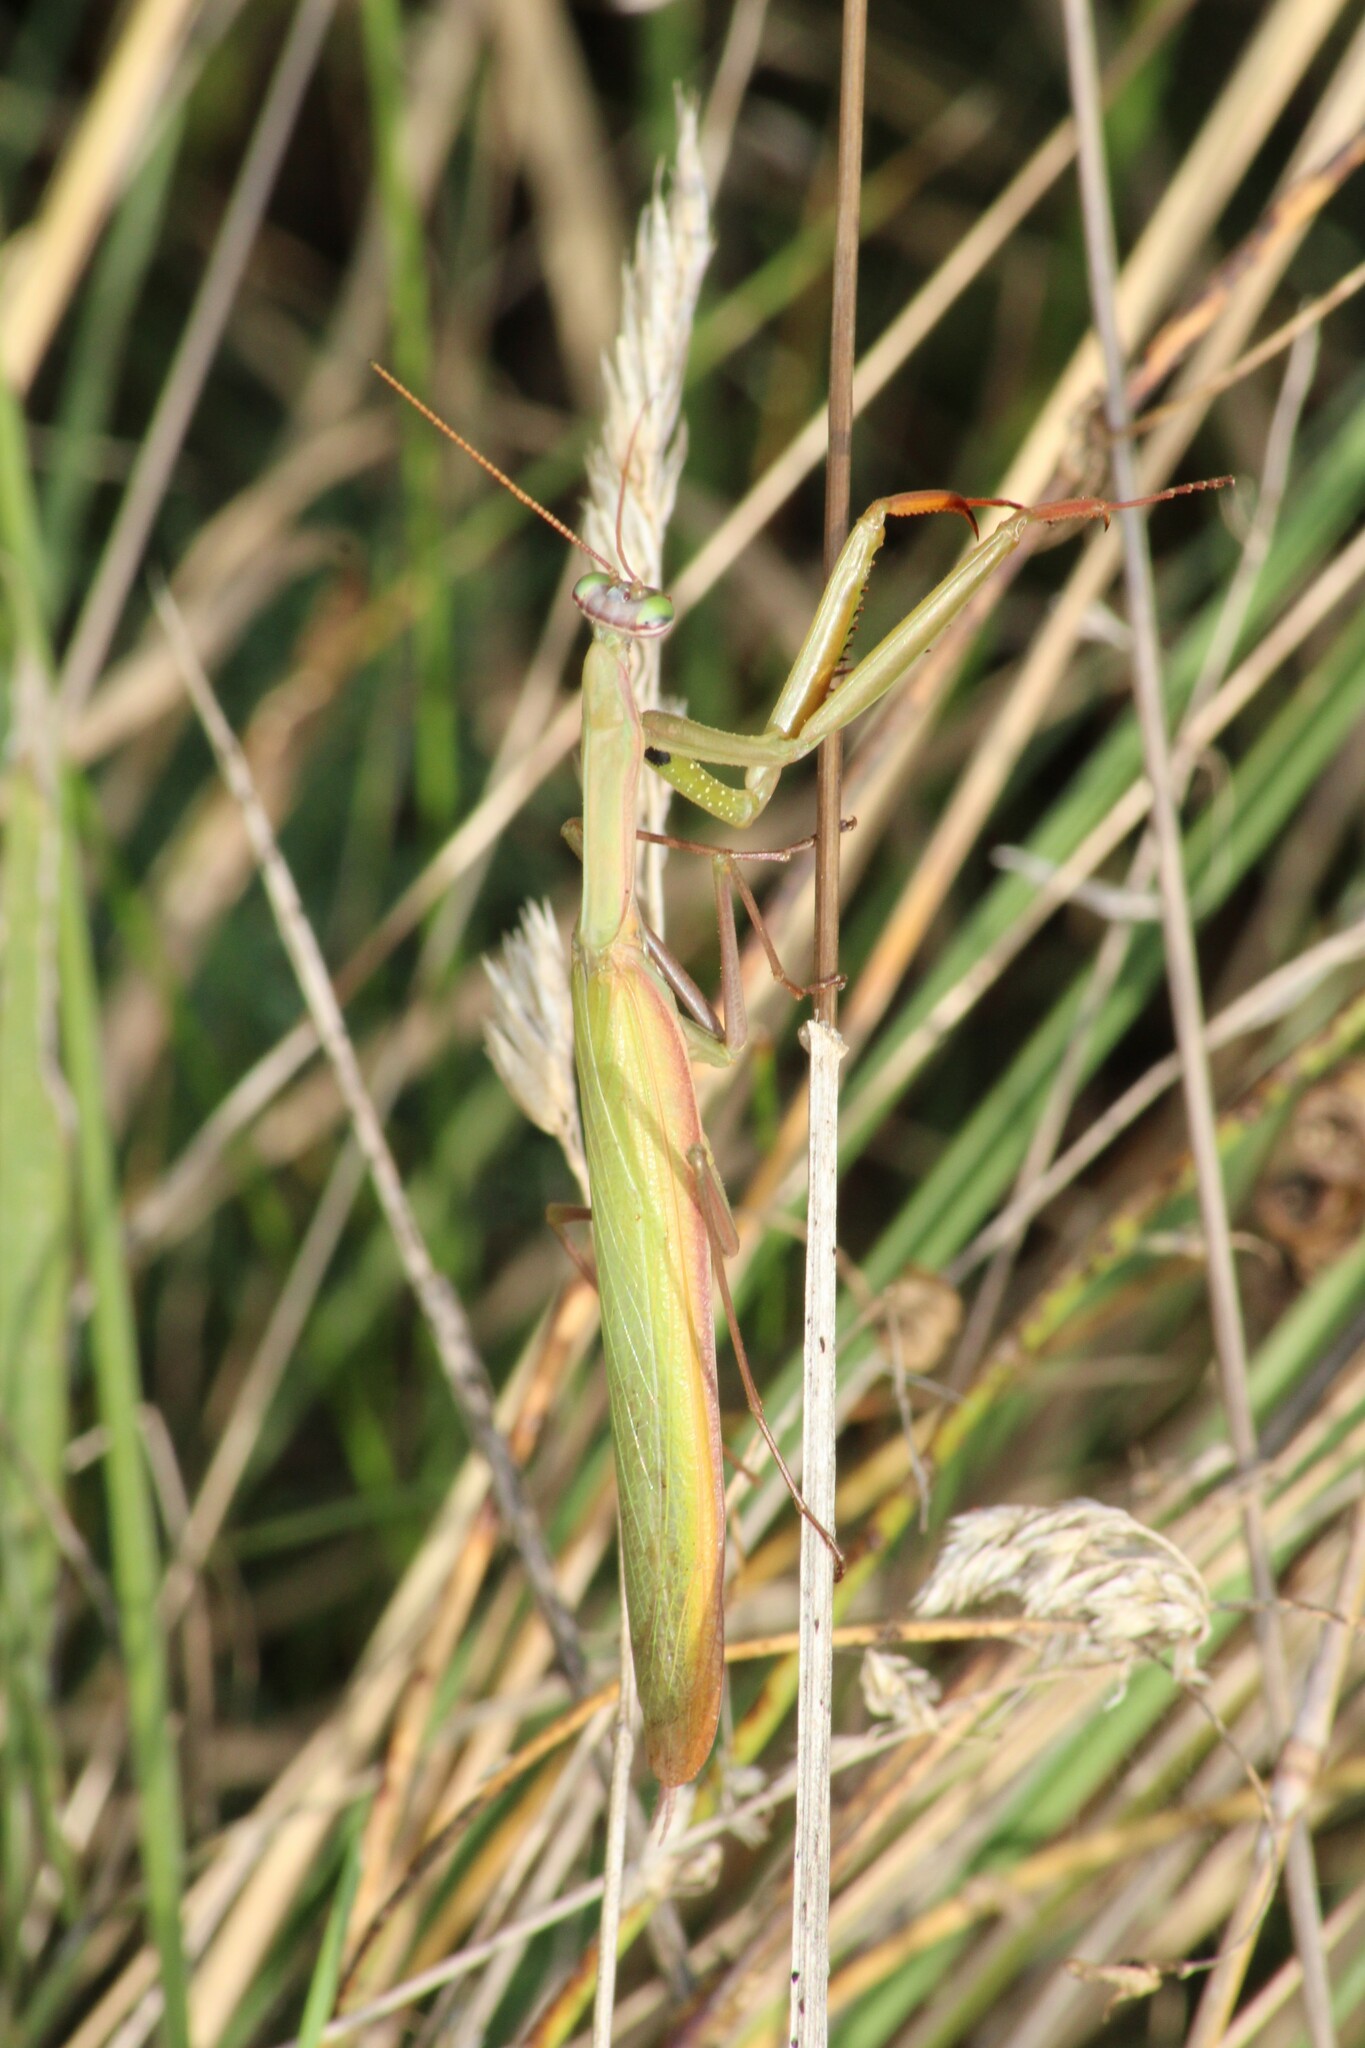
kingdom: Animalia
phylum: Arthropoda
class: Insecta
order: Mantodea
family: Mantidae
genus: Mantis
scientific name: Mantis religiosa
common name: Praying mantis
